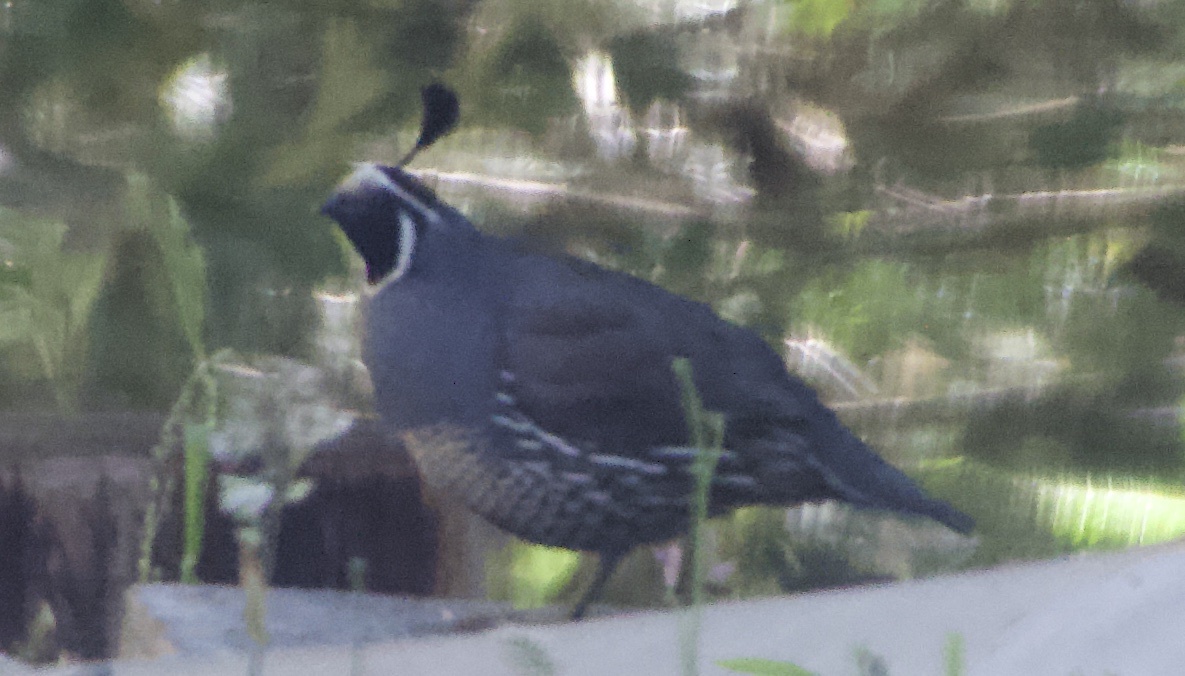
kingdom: Animalia
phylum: Chordata
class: Aves
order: Galliformes
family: Odontophoridae
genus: Callipepla
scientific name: Callipepla californica
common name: California quail
